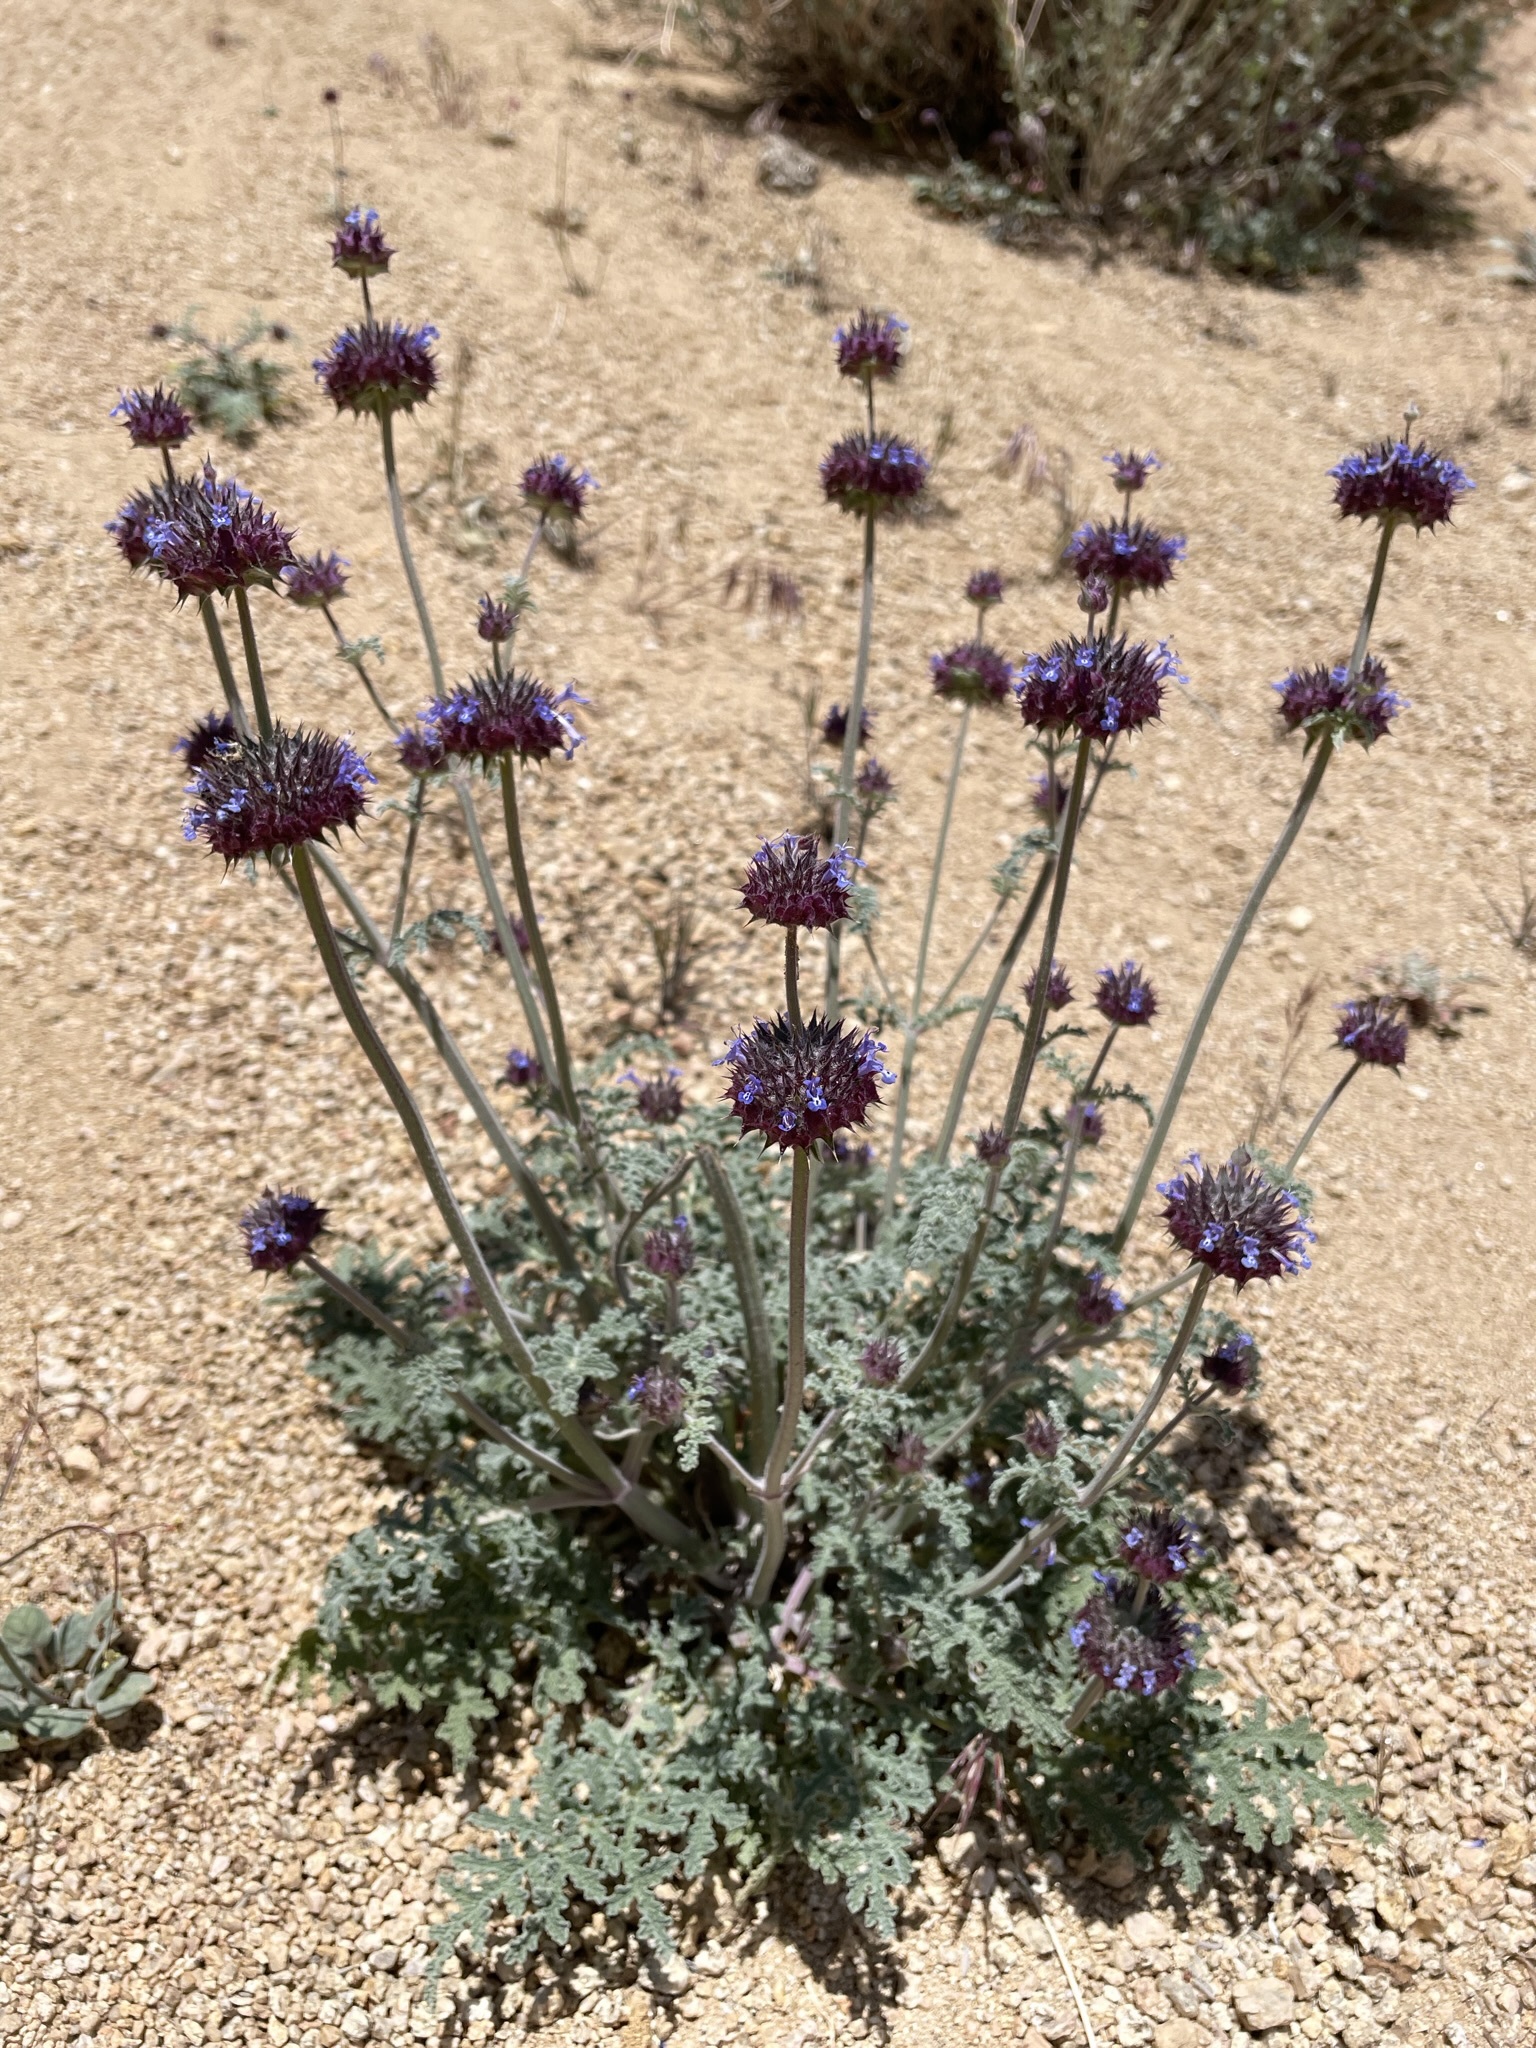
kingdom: Plantae
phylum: Tracheophyta
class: Magnoliopsida
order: Lamiales
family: Lamiaceae
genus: Salvia
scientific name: Salvia columbariae
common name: Chia
